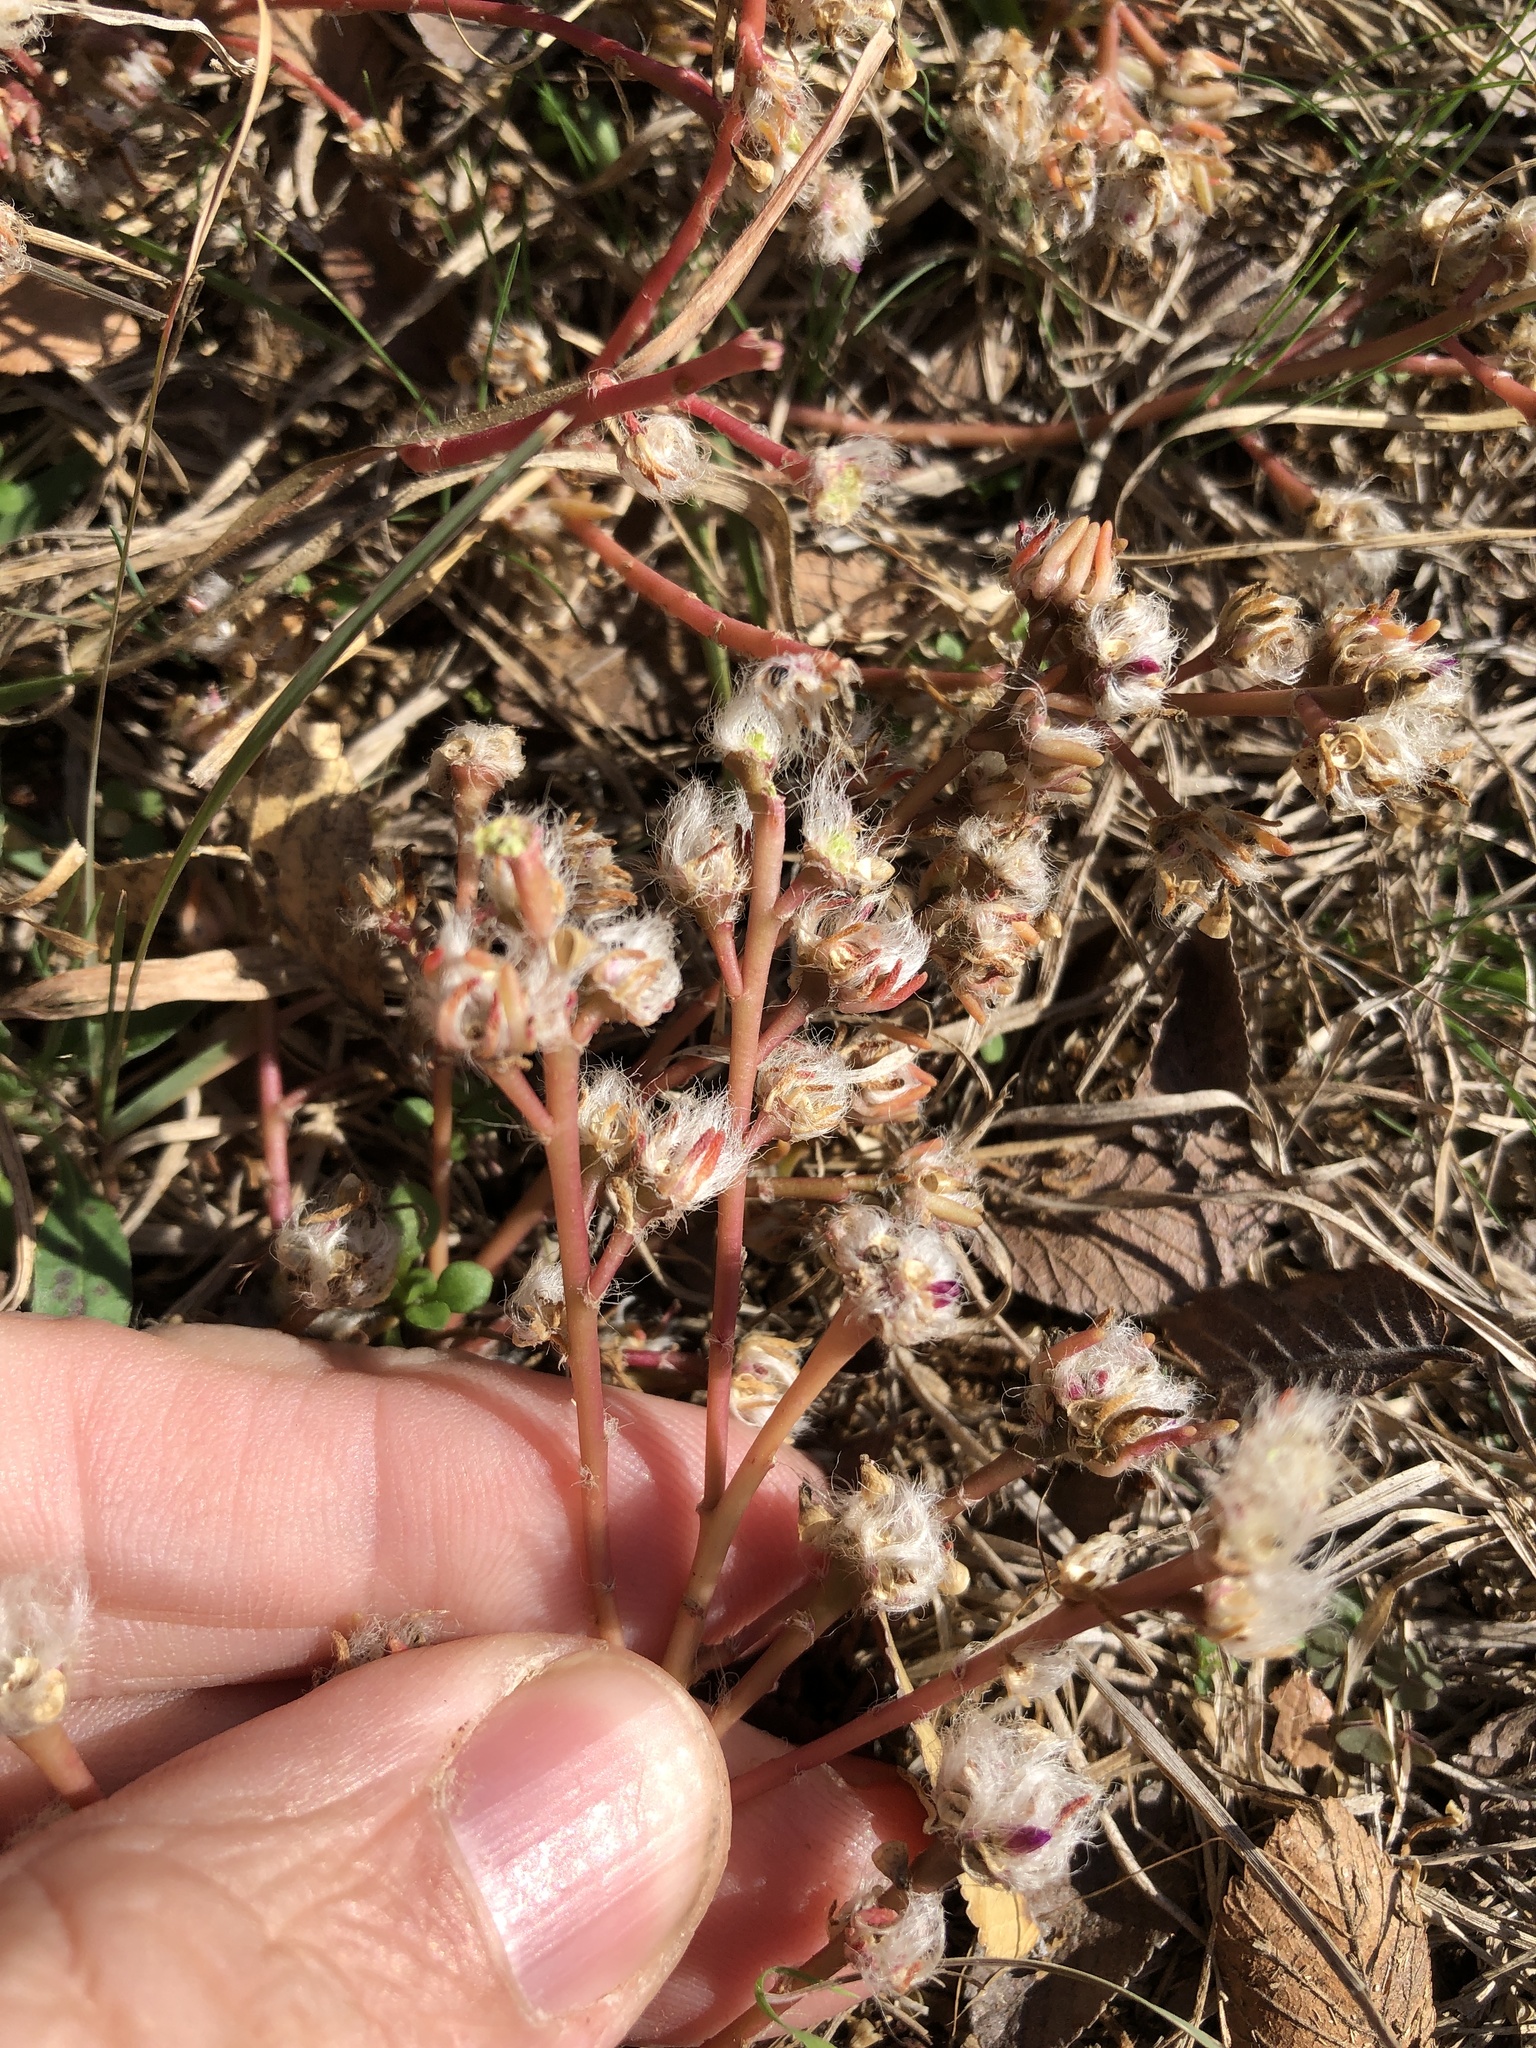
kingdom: Plantae
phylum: Tracheophyta
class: Magnoliopsida
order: Caryophyllales
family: Portulacaceae
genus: Portulaca
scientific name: Portulaca pilosa
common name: Kiss me quick
